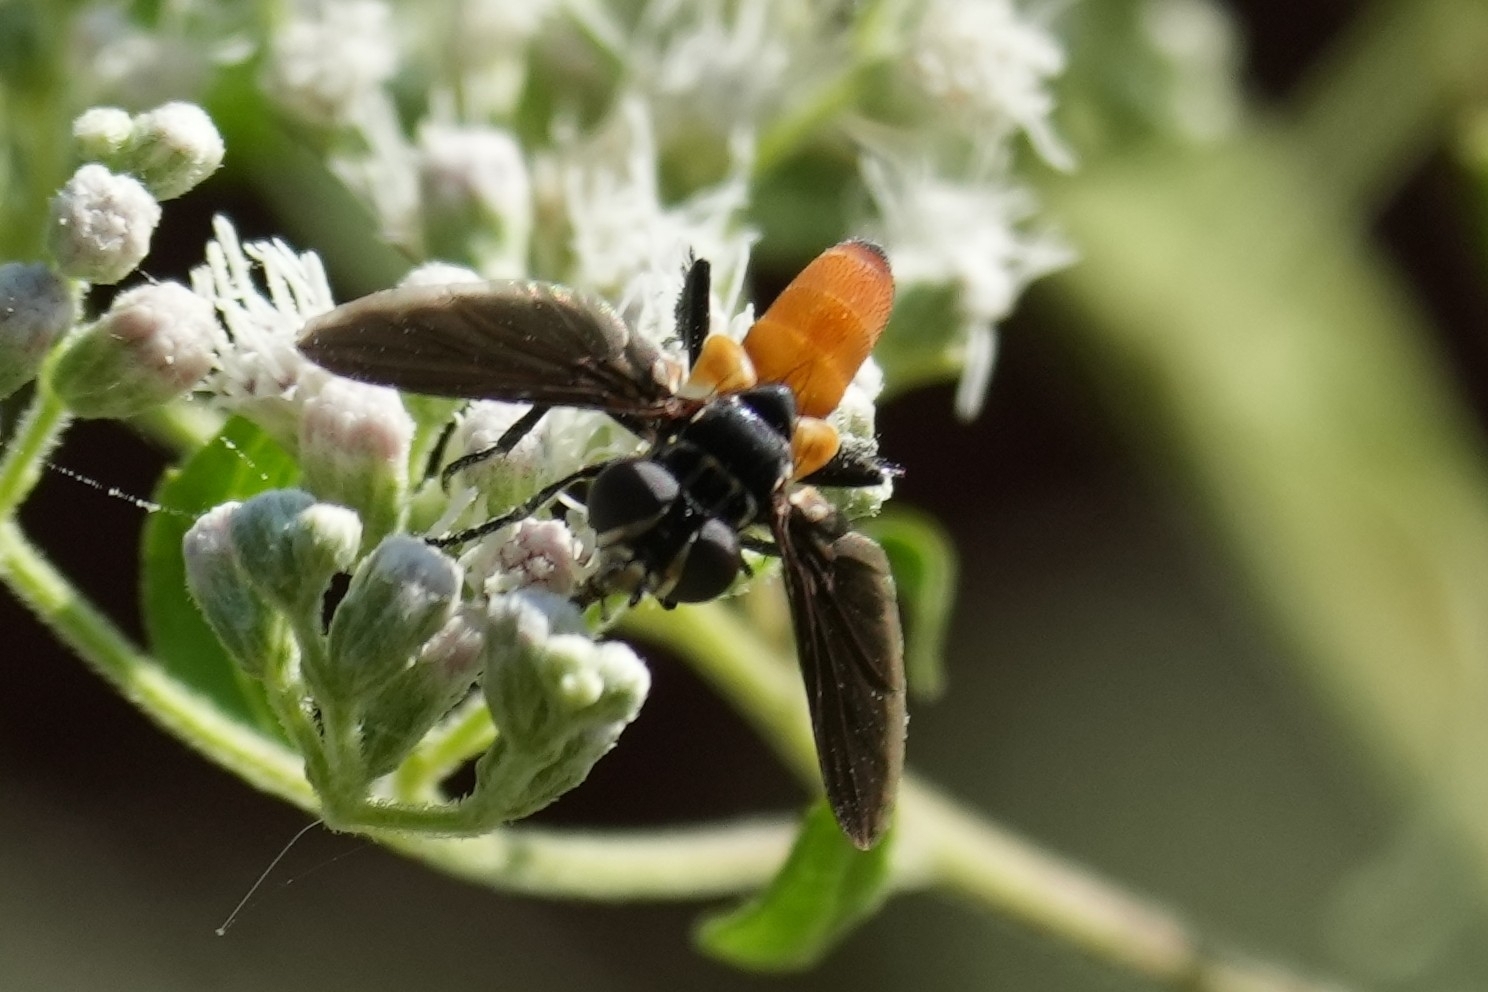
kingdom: Animalia
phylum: Arthropoda
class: Insecta
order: Diptera
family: Tachinidae
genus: Trichopoda
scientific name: Trichopoda pennipes
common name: Tachinid fly
